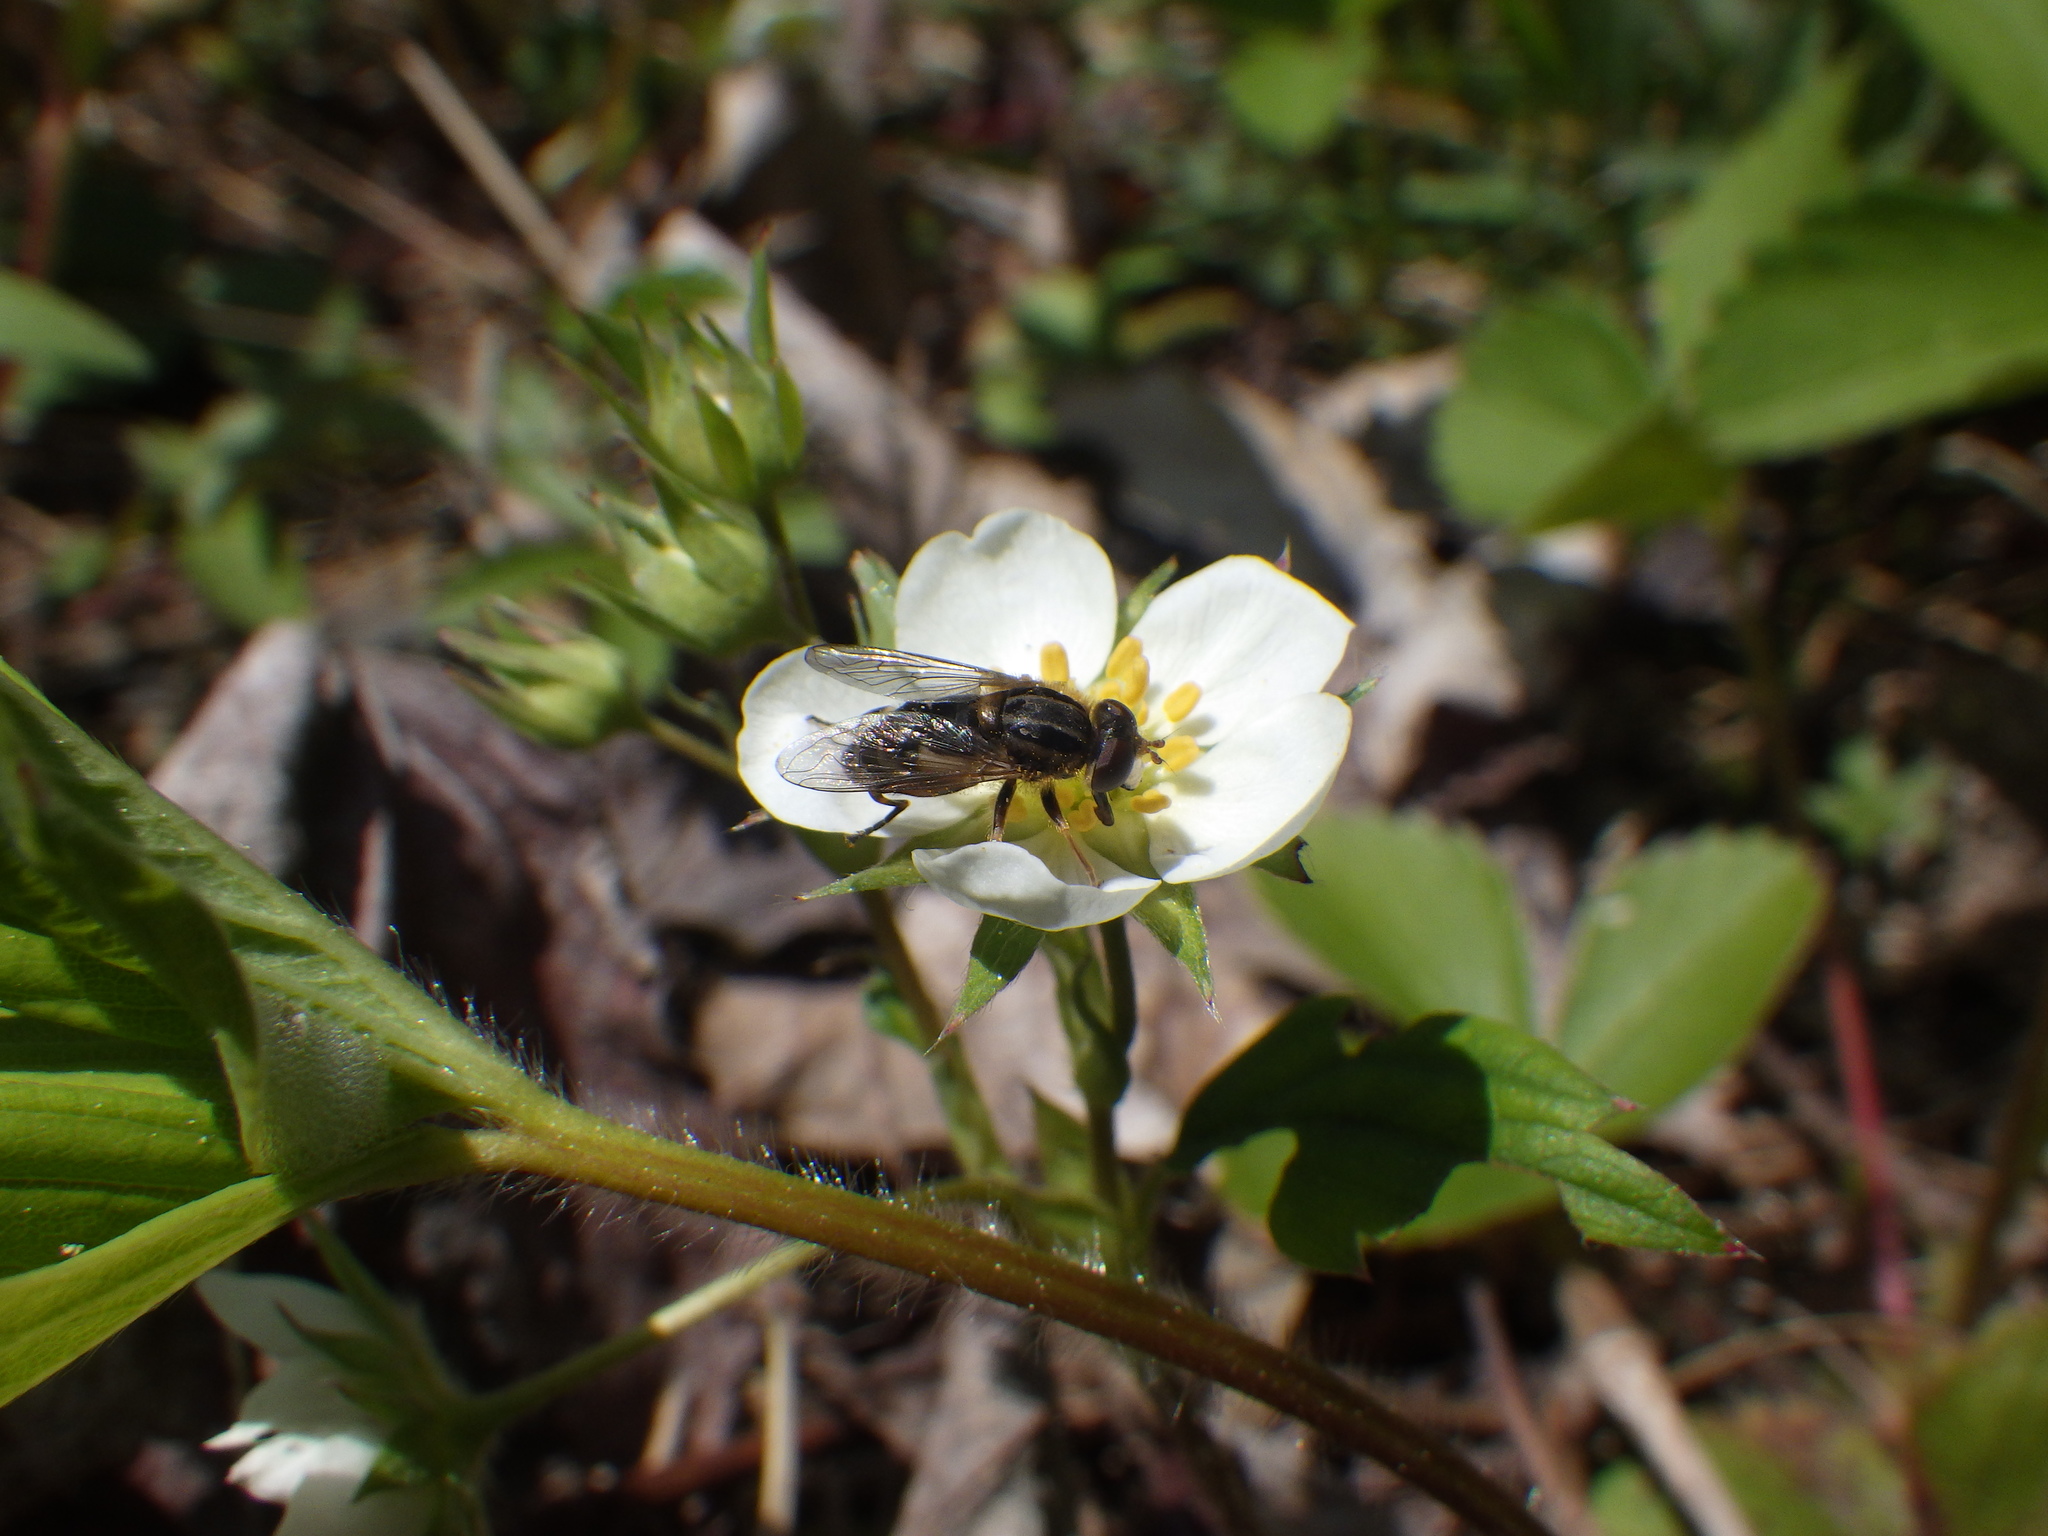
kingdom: Plantae
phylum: Tracheophyta
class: Magnoliopsida
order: Rosales
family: Rosaceae
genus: Fragaria
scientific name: Fragaria virginiana
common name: Thickleaved wild strawberry
